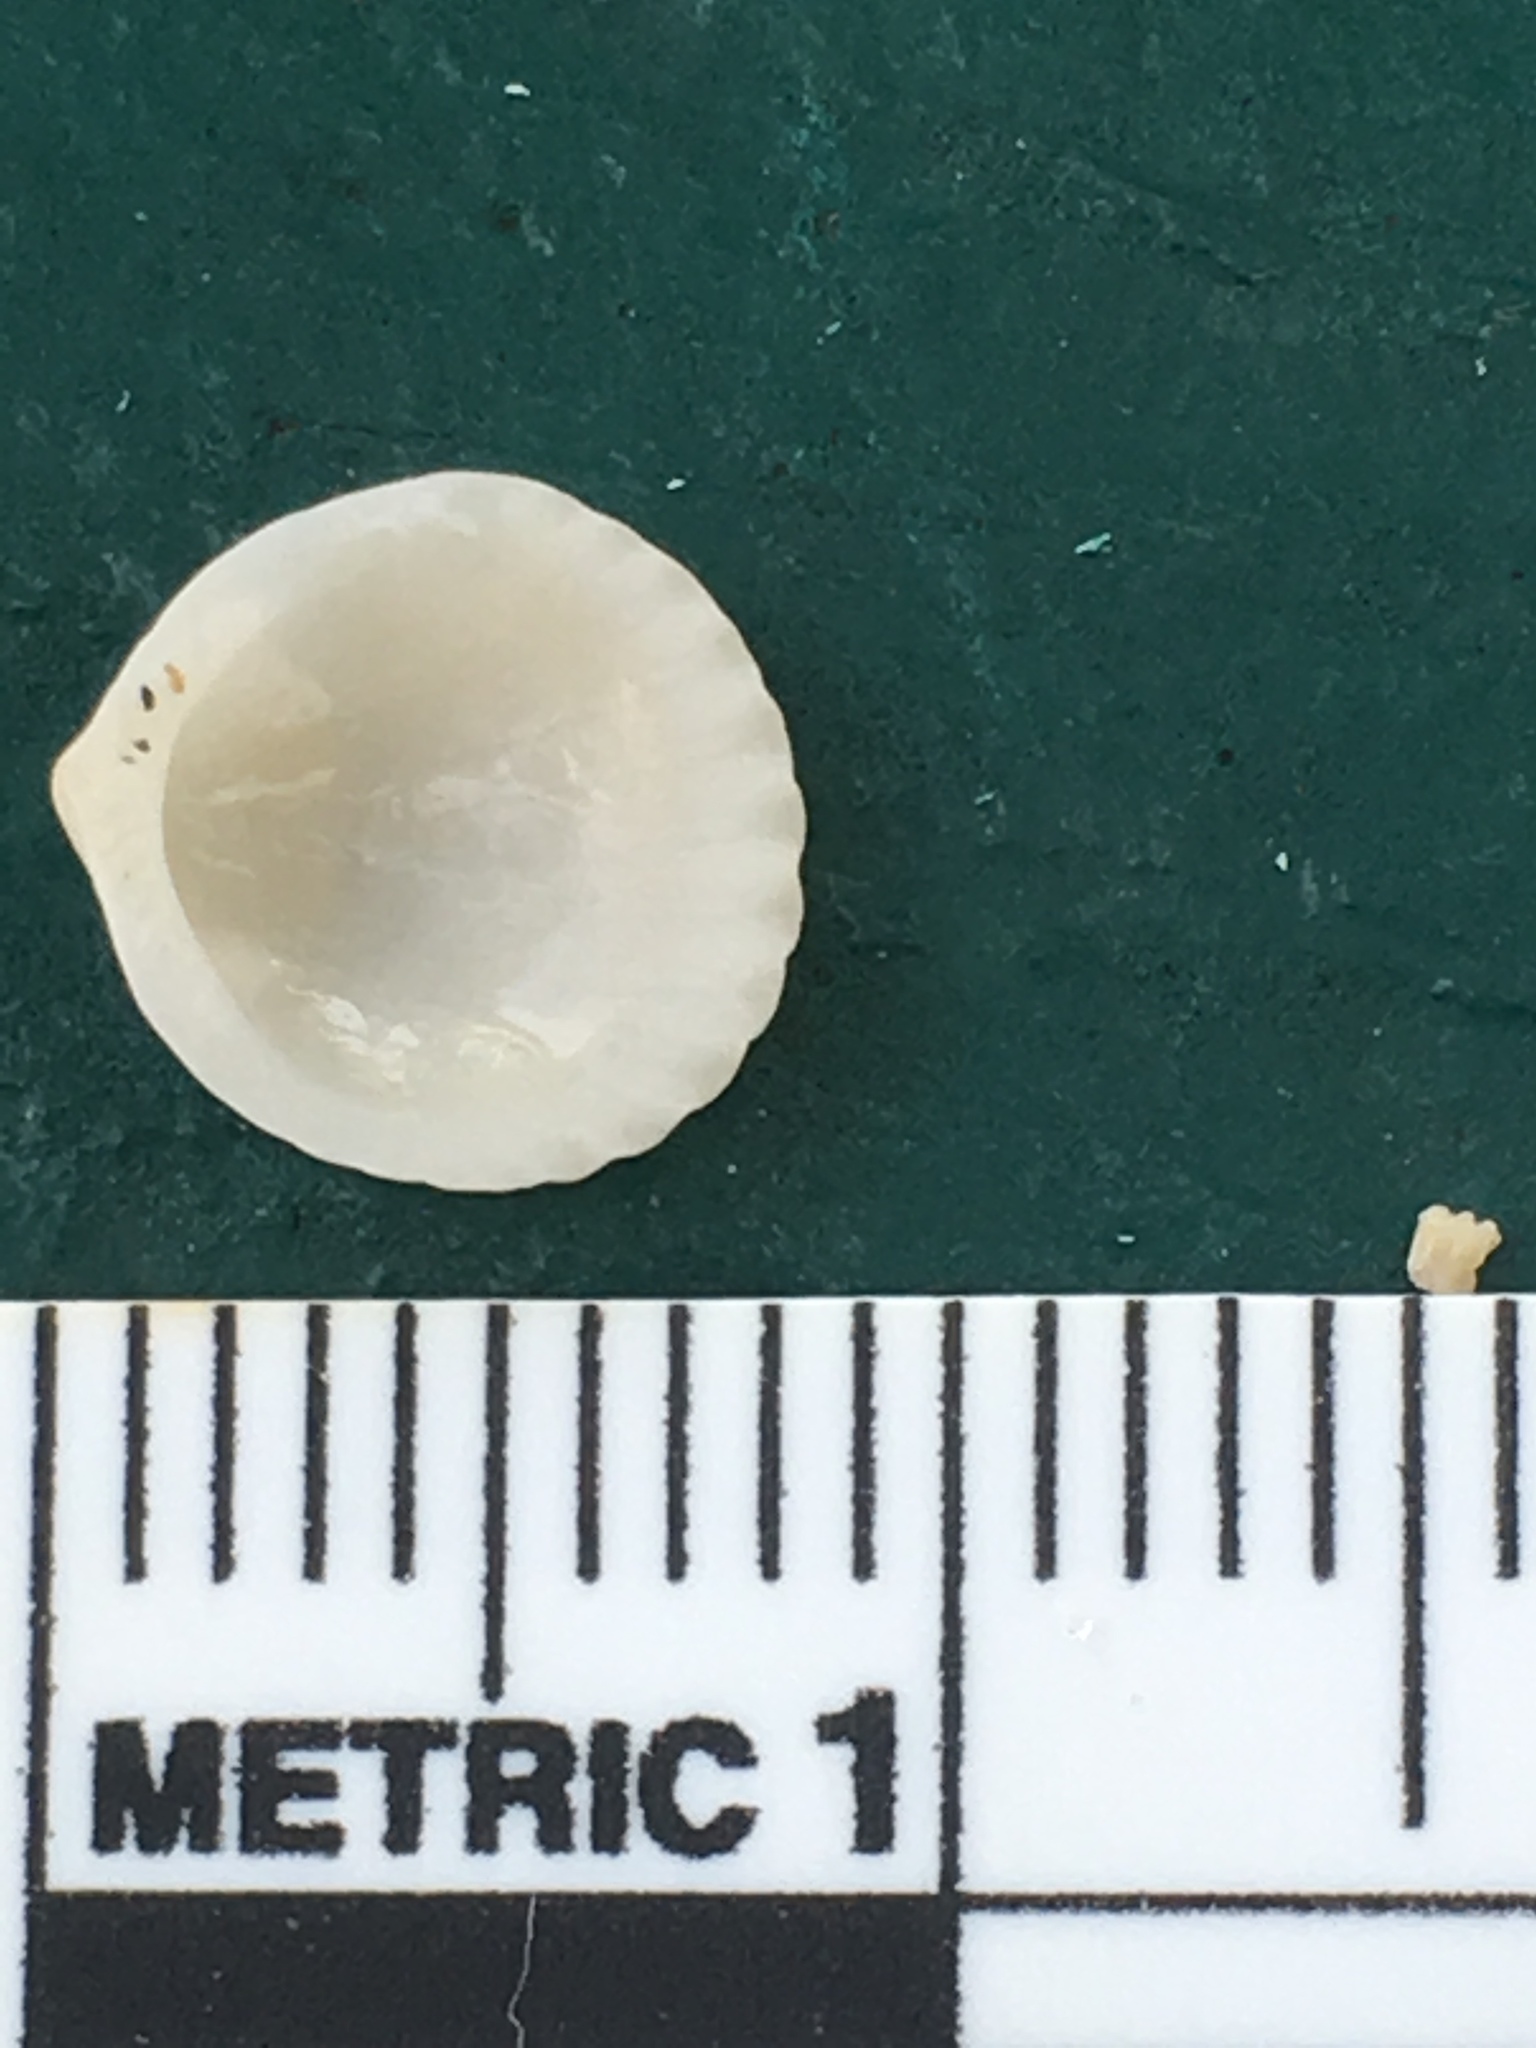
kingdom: Animalia
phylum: Mollusca
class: Bivalvia
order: Arcida
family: Glycymerididae
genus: Tucetona
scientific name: Tucetona pectinata
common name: Comb bittersweet
